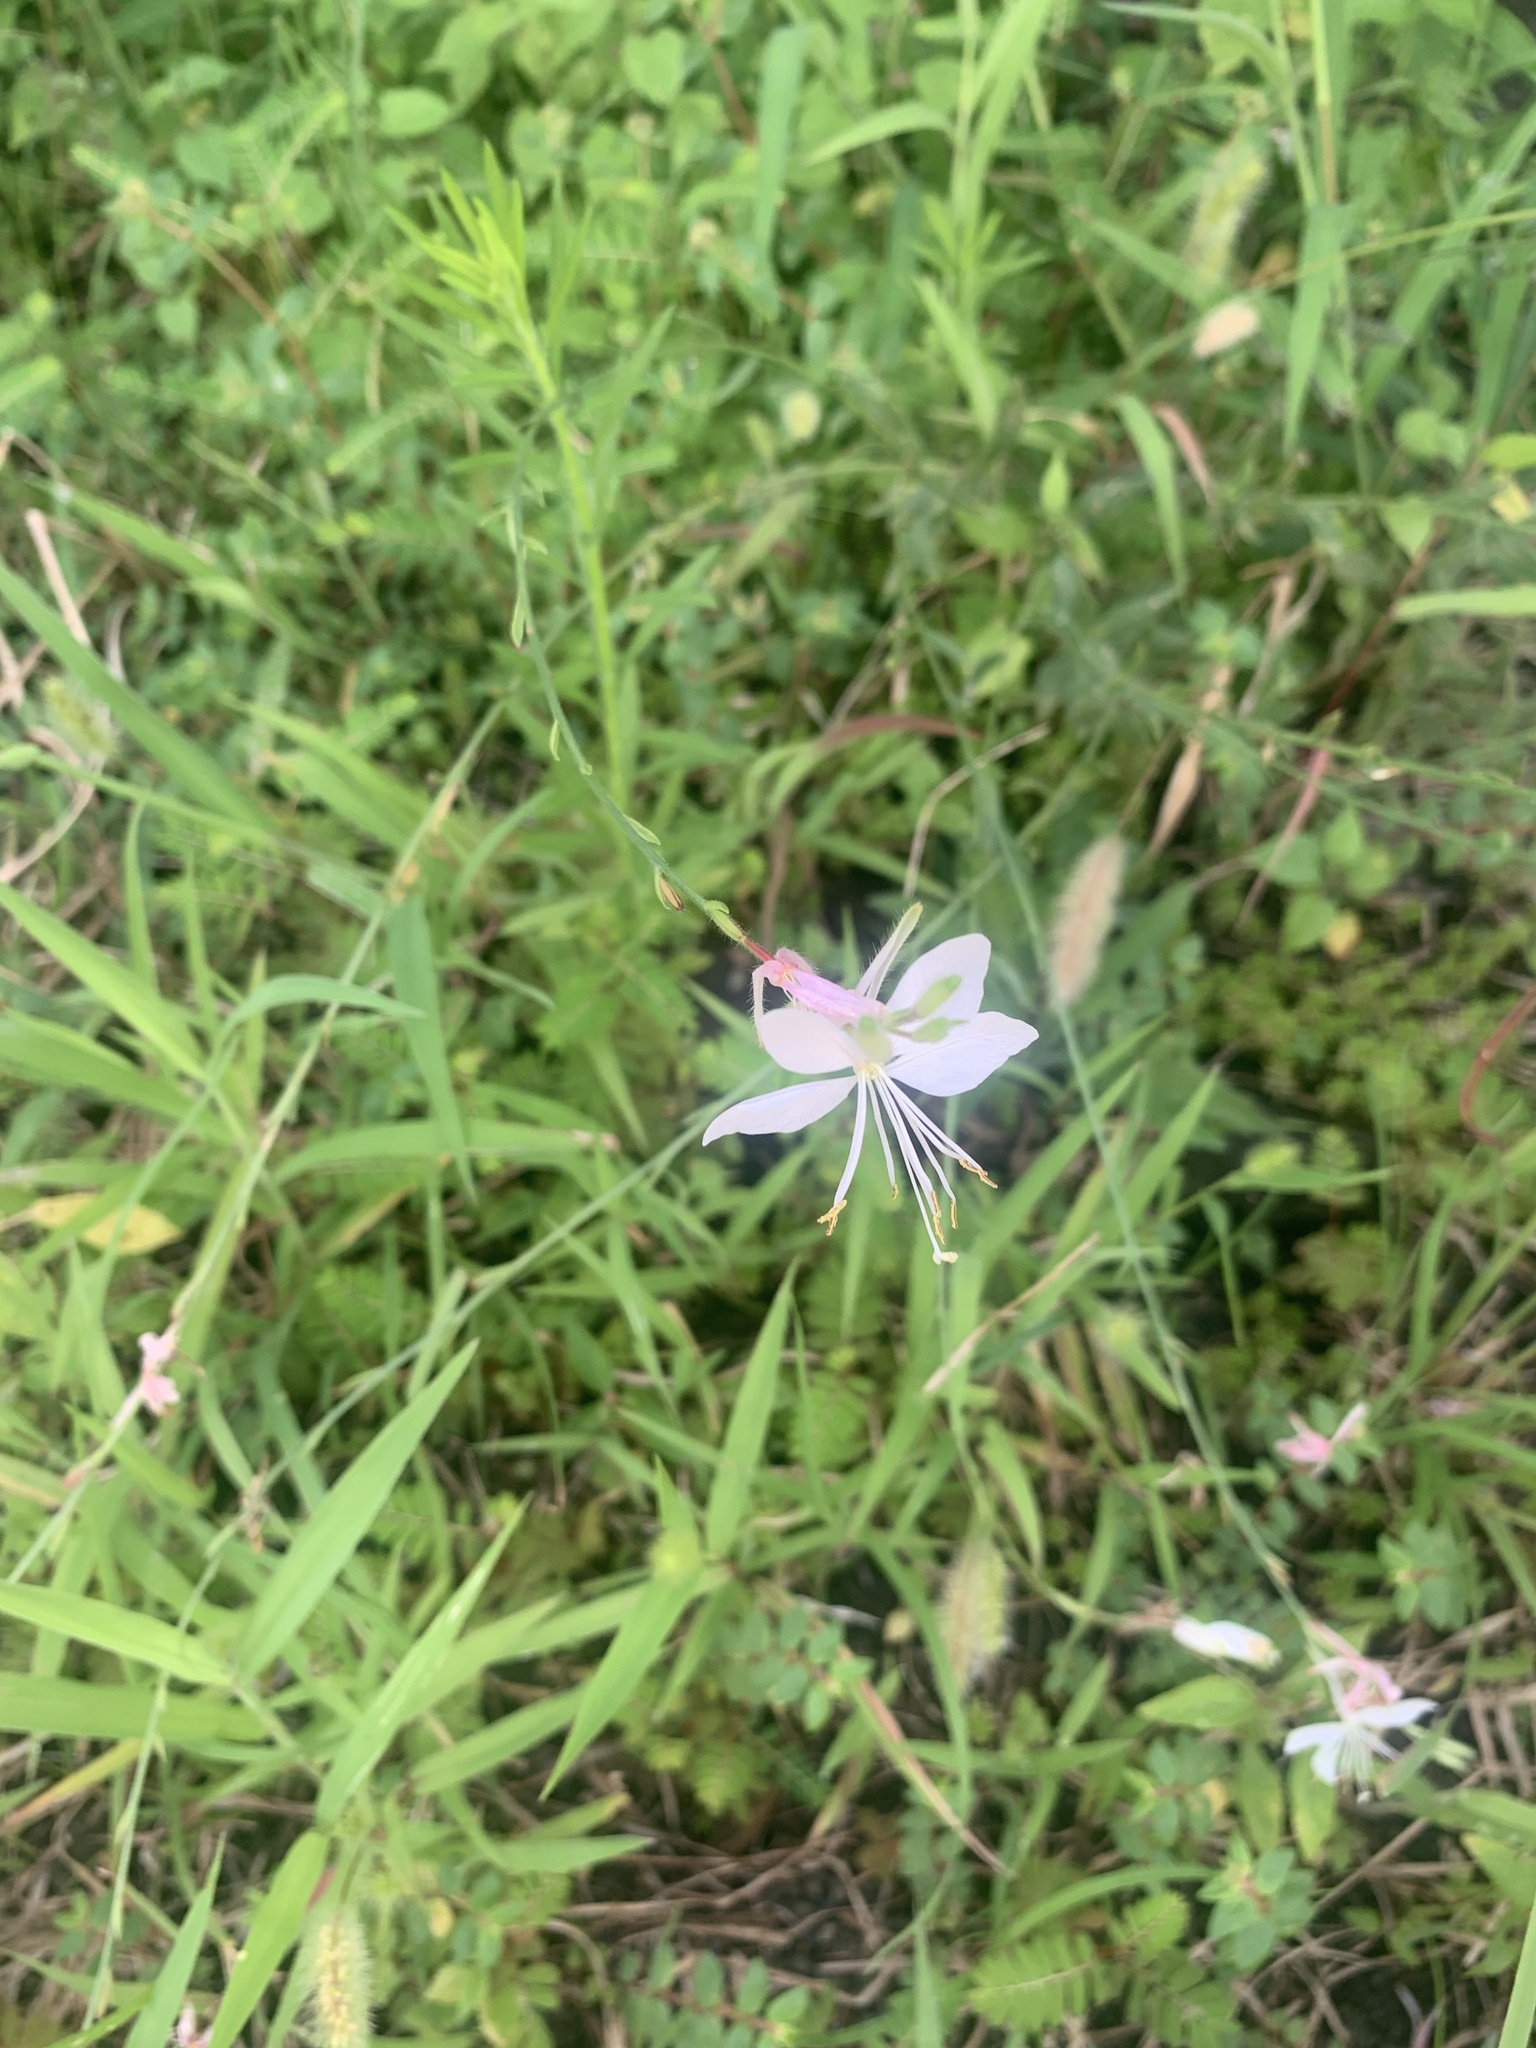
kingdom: Plantae
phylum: Tracheophyta
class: Magnoliopsida
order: Myrtales
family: Onagraceae
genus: Oenothera
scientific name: Oenothera lindheimeri
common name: Lindheimer's beeblossom
